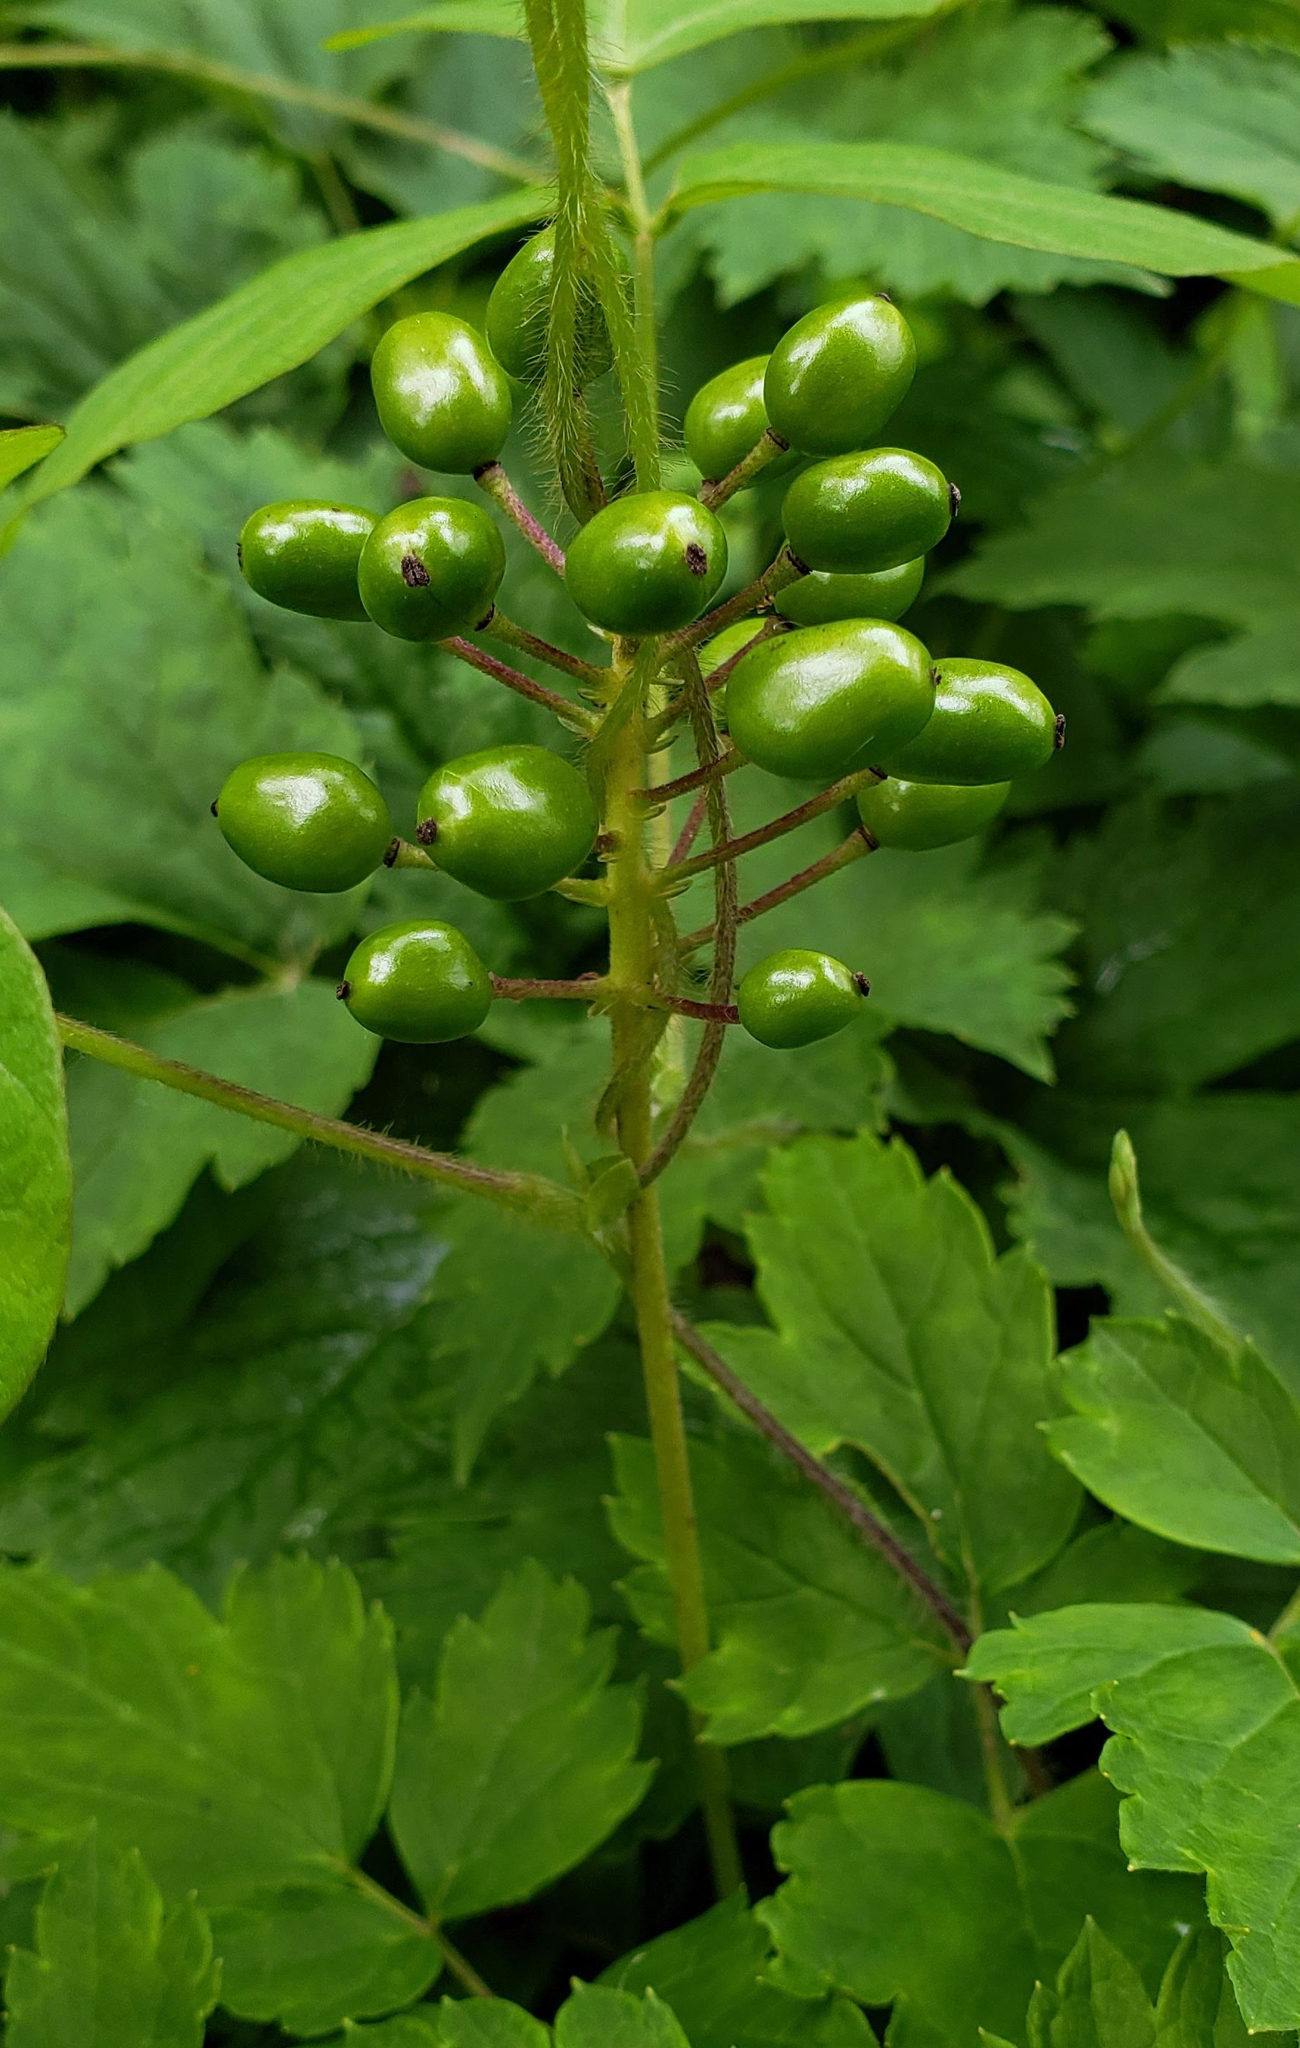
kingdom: Plantae
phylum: Tracheophyta
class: Magnoliopsida
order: Ranunculales
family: Ranunculaceae
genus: Actaea
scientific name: Actaea rubra
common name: Red baneberry
